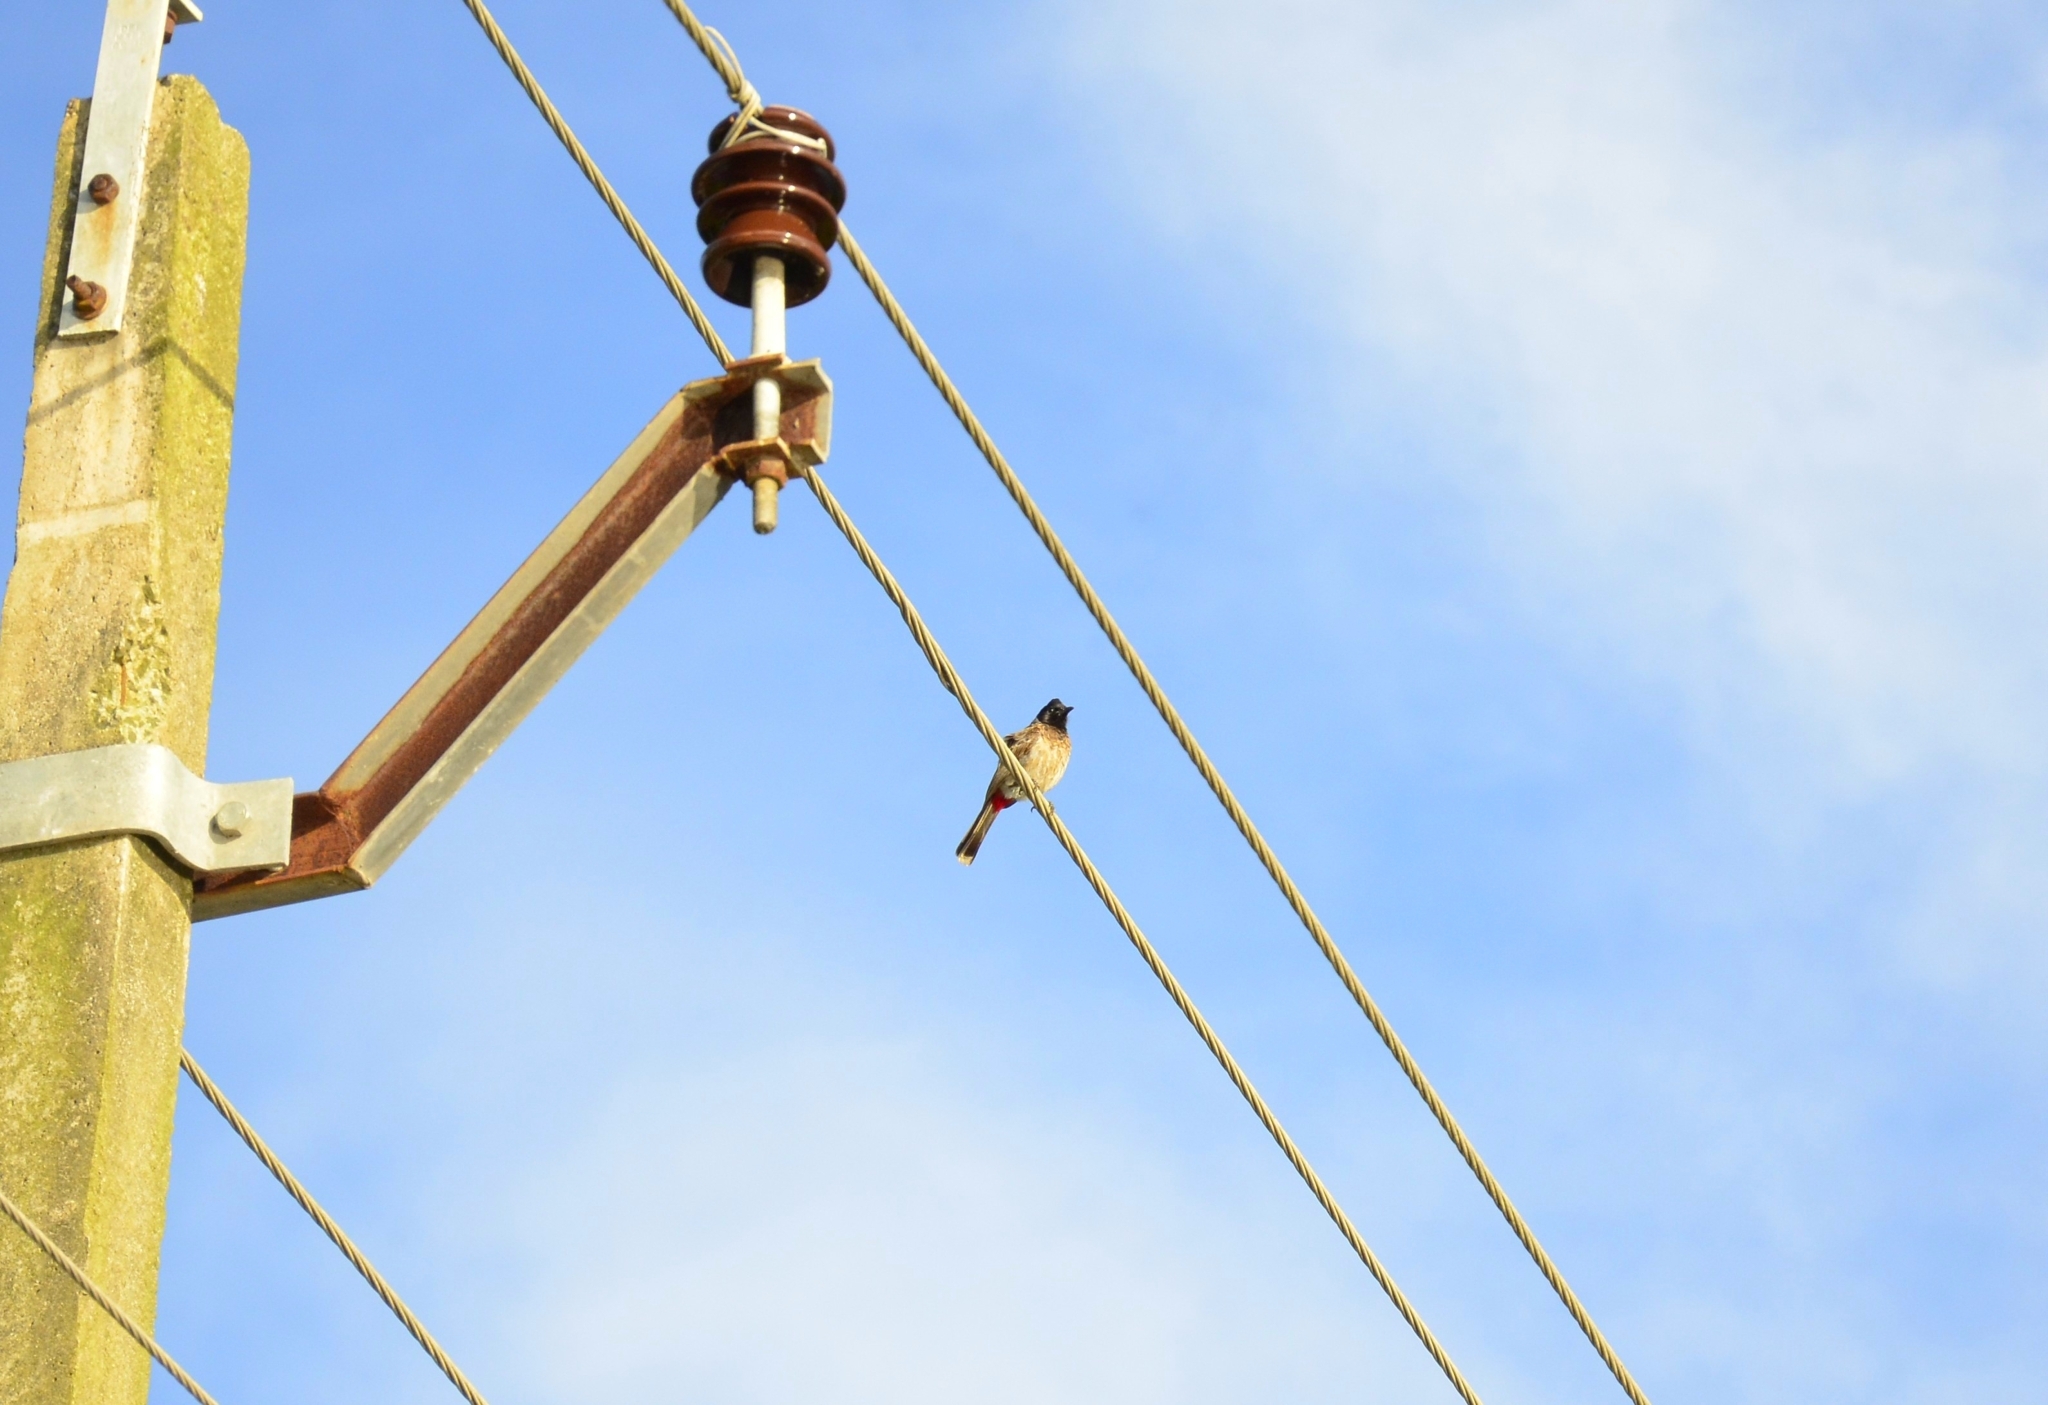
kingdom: Animalia
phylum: Chordata
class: Aves
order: Passeriformes
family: Pycnonotidae
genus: Pycnonotus
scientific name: Pycnonotus cafer
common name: Red-vented bulbul
